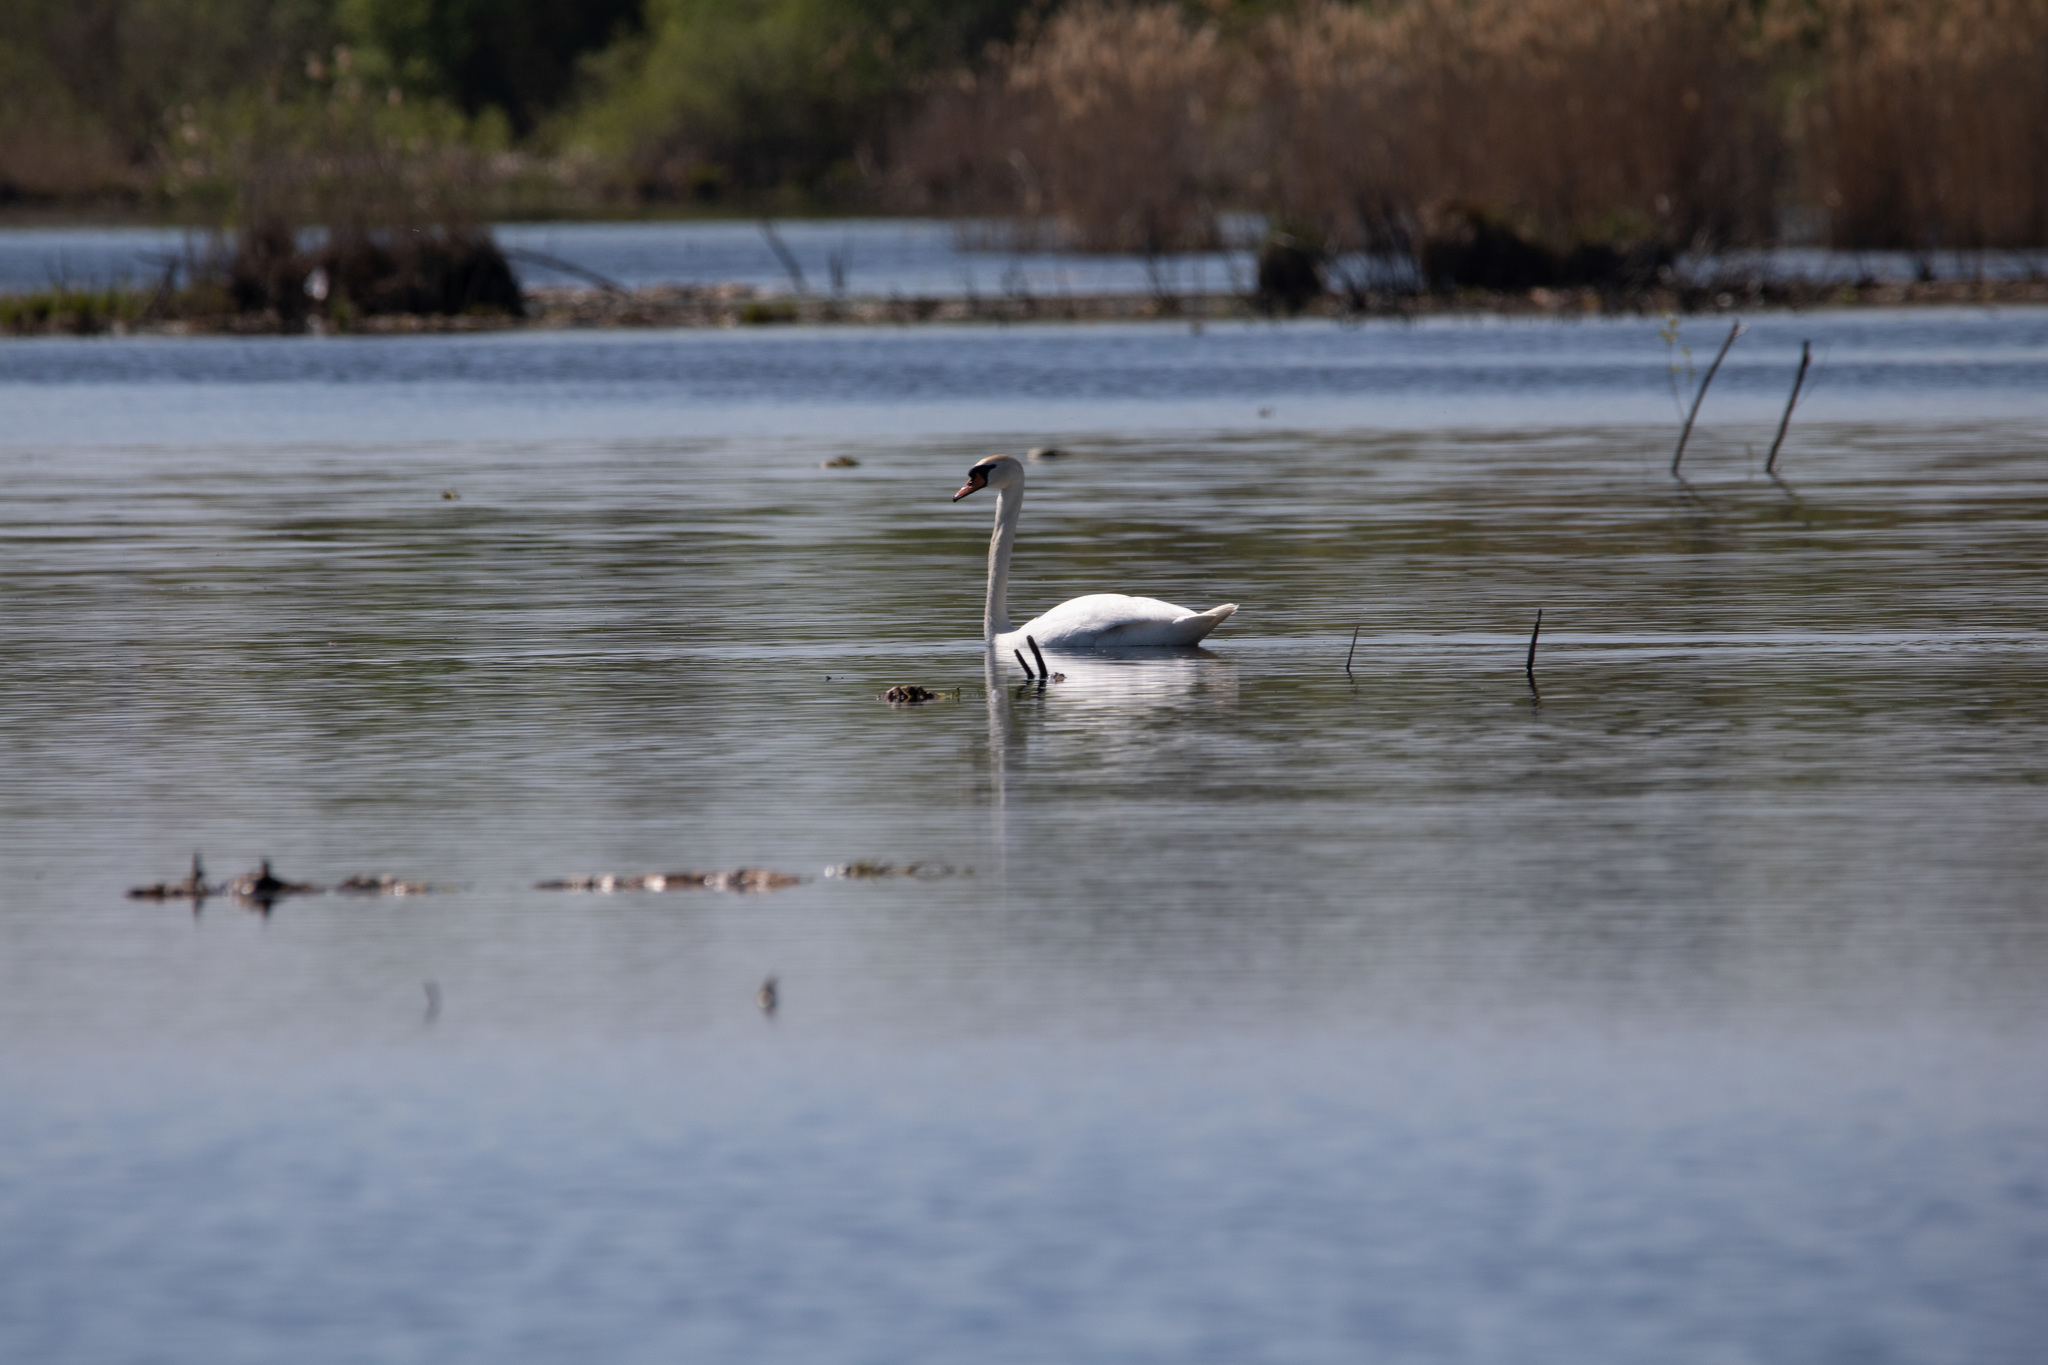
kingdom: Animalia
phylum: Chordata
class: Aves
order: Anseriformes
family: Anatidae
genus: Cygnus
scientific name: Cygnus olor
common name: Mute swan
